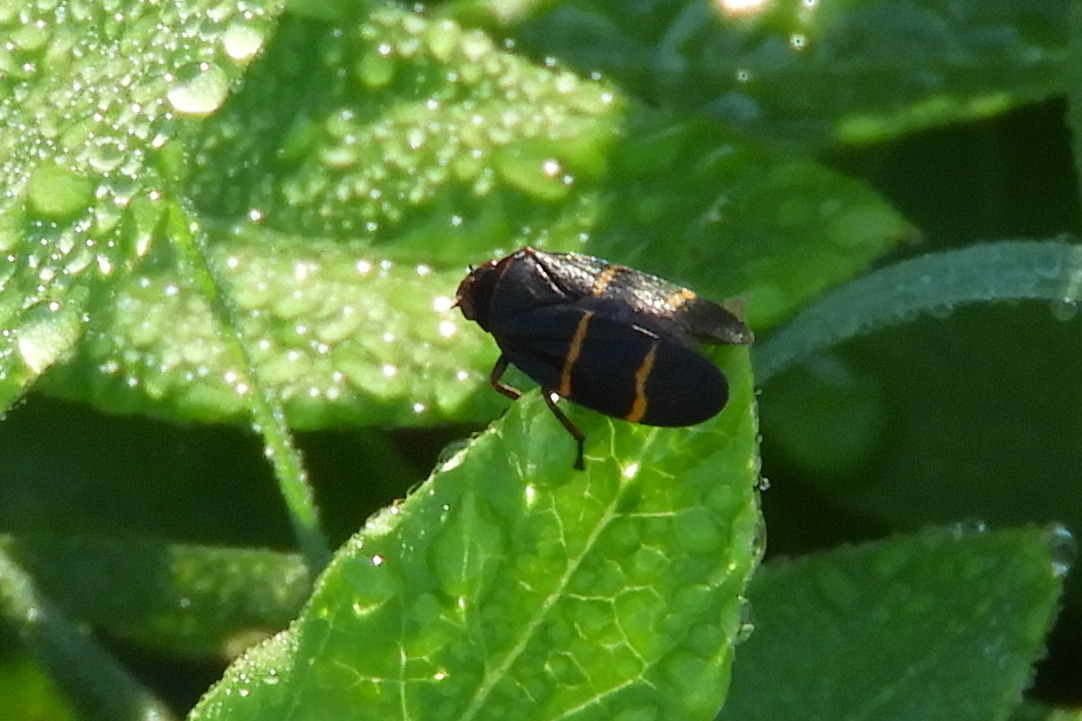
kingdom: Animalia
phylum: Arthropoda
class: Insecta
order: Hemiptera
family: Cercopidae
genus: Prosapia
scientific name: Prosapia bicincta
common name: Twolined spittlebug
